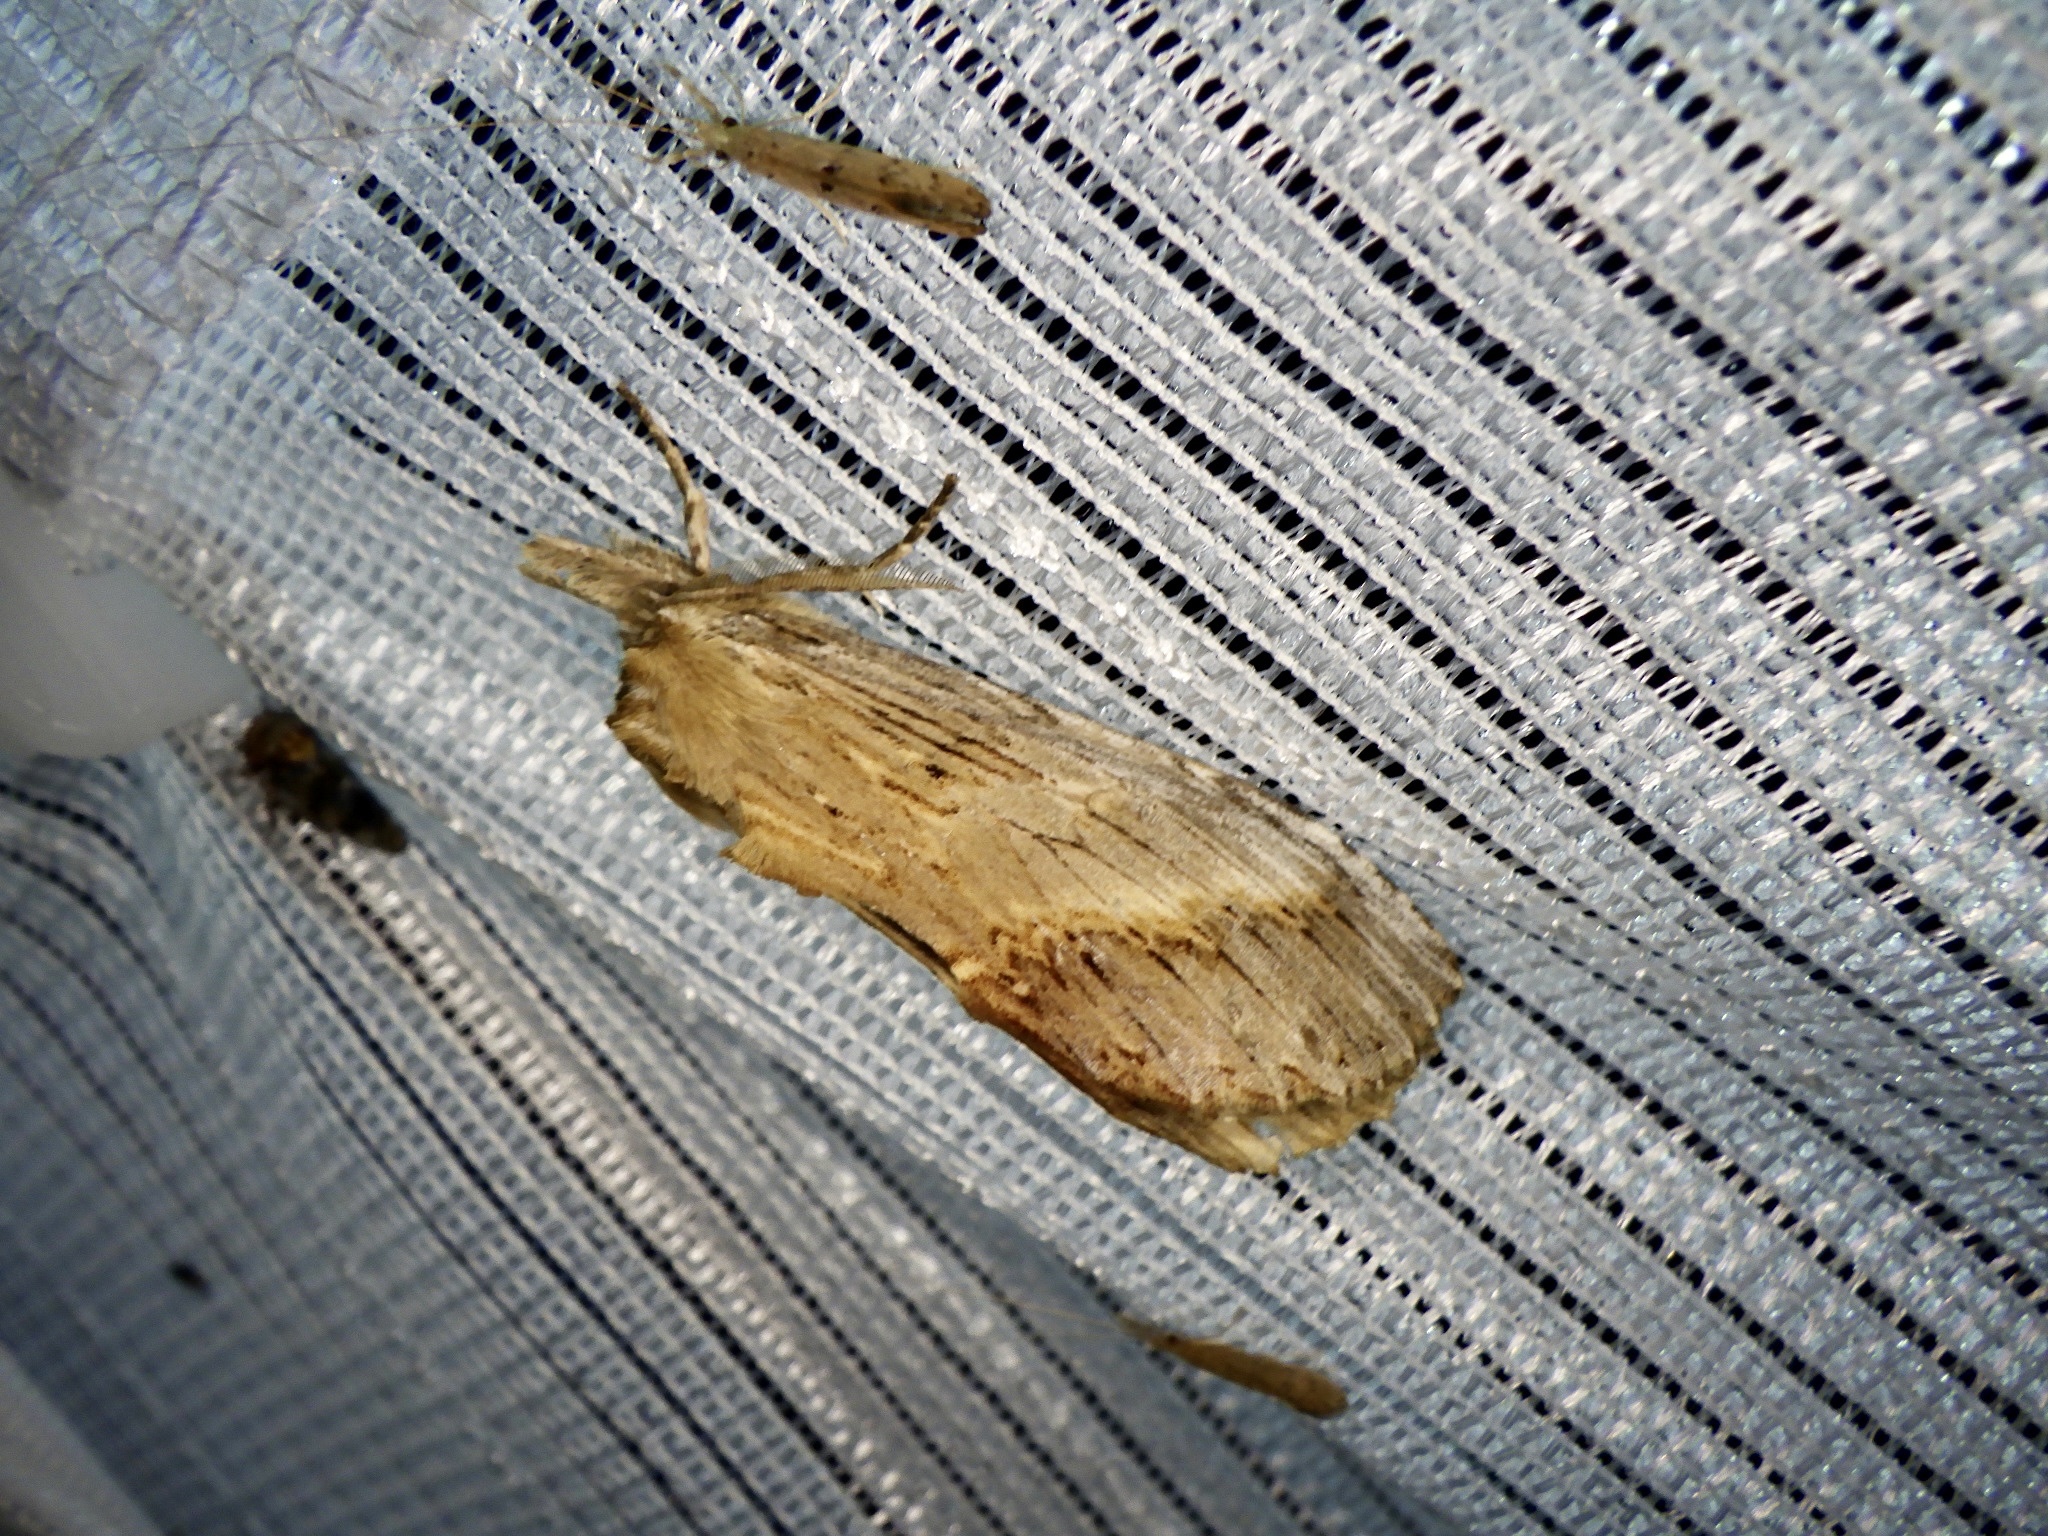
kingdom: Animalia
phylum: Arthropoda
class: Insecta
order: Lepidoptera
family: Notodontidae
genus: Pterostoma
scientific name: Pterostoma gigantina
